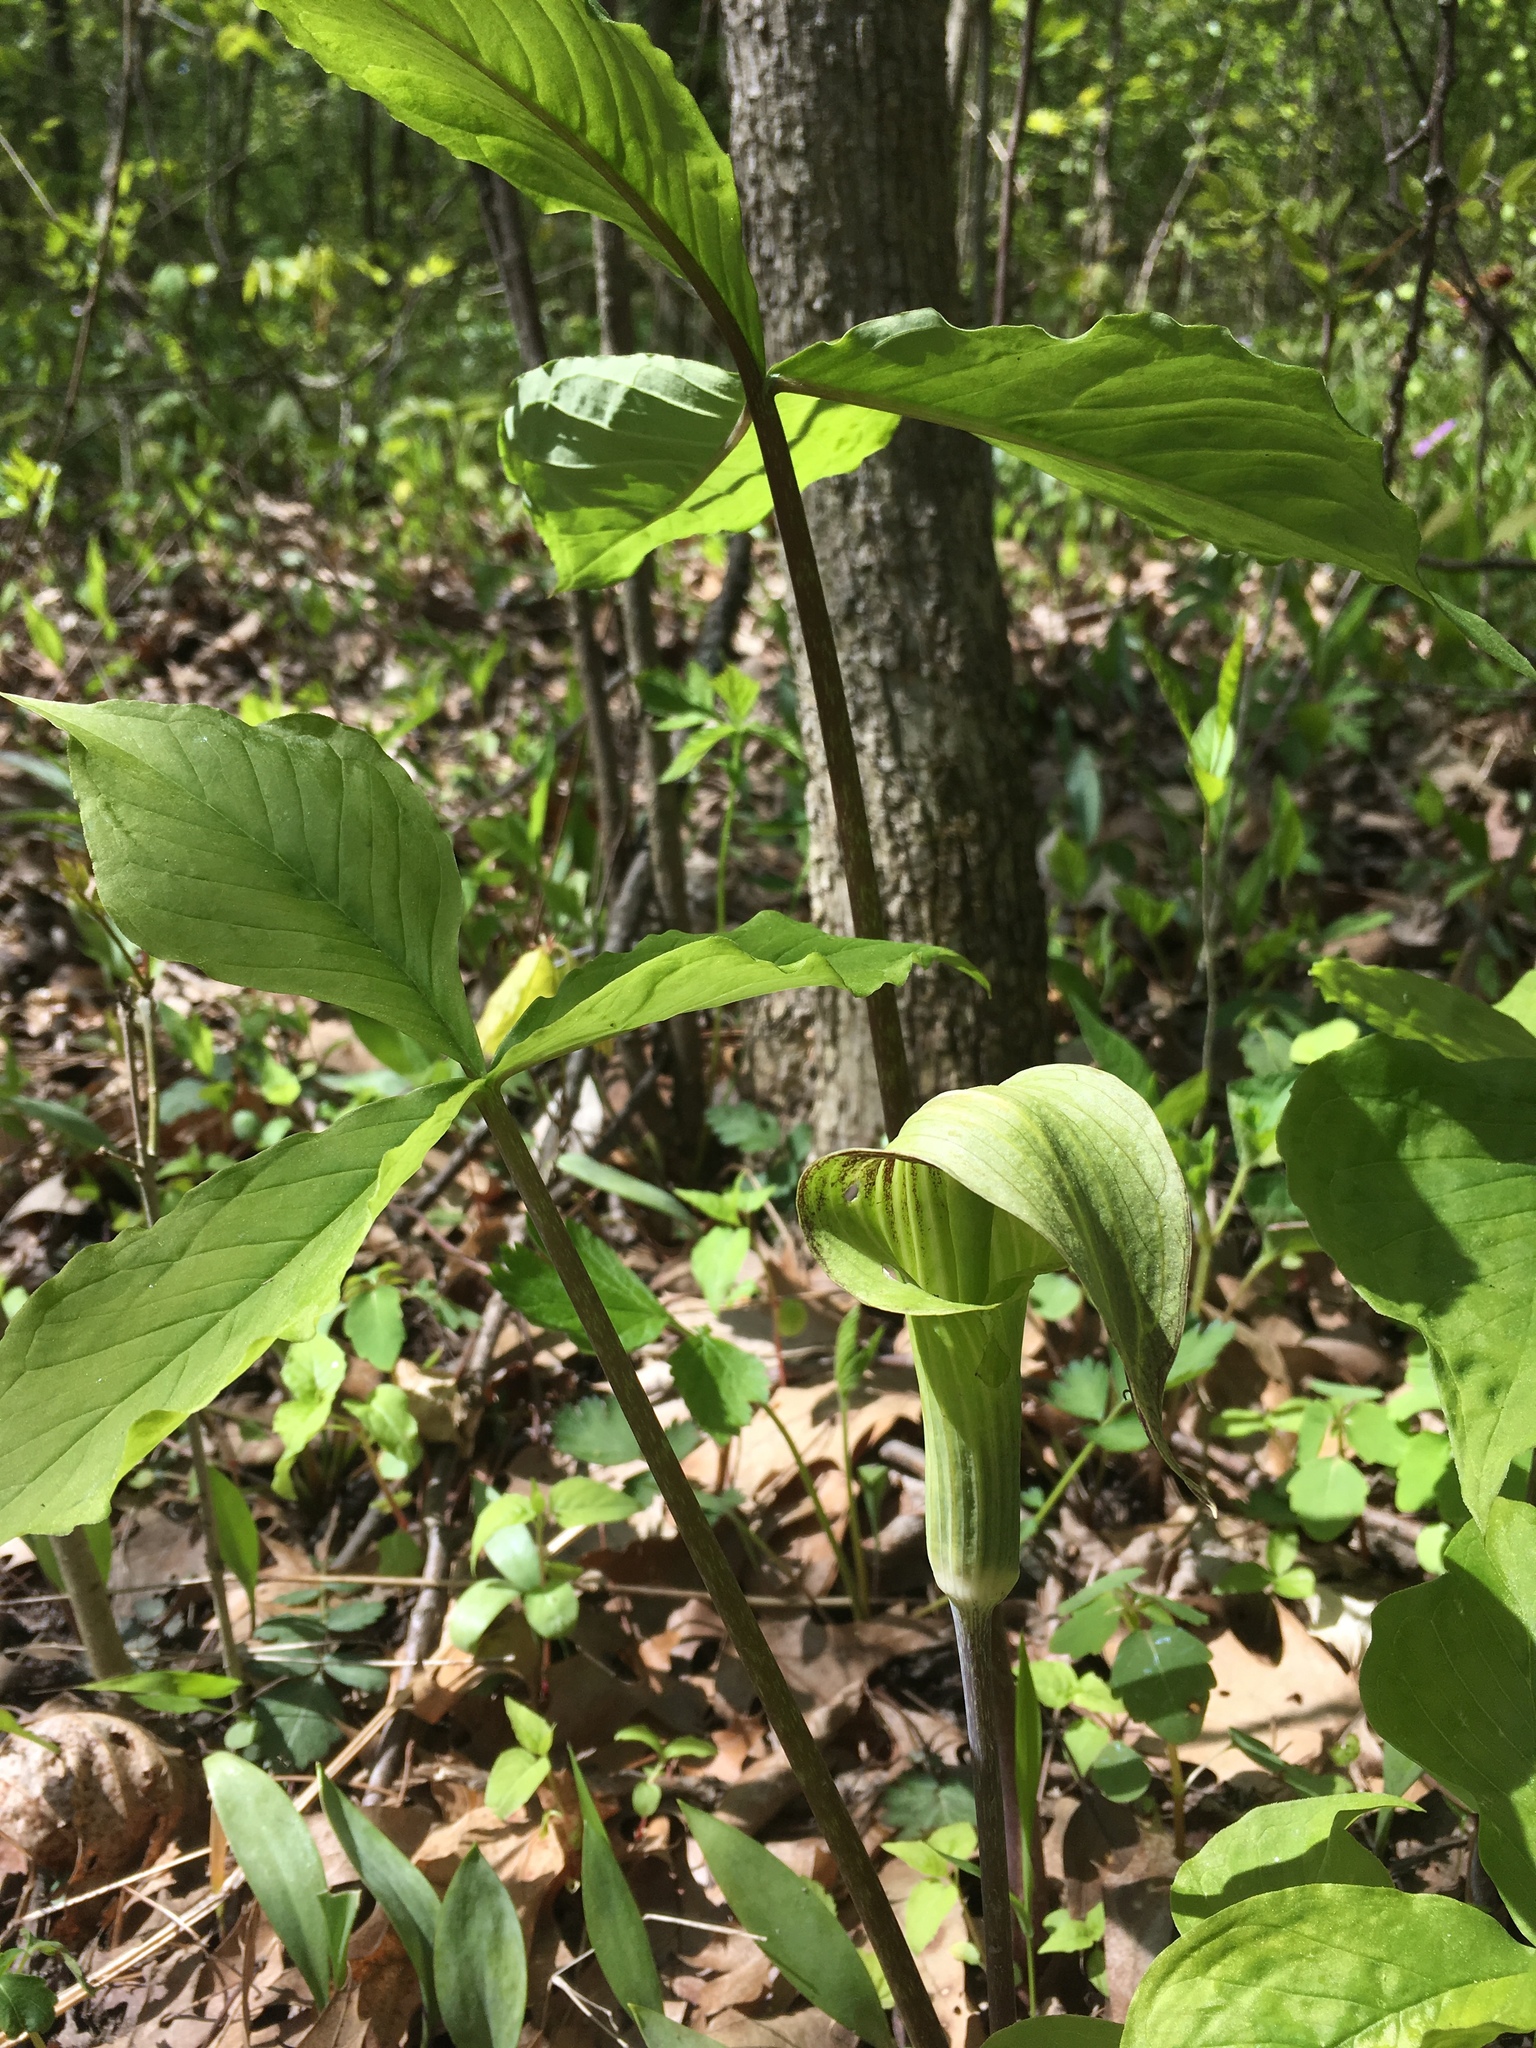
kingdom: Plantae
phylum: Tracheophyta
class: Liliopsida
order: Alismatales
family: Araceae
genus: Arisaema
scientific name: Arisaema triphyllum
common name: Jack-in-the-pulpit
